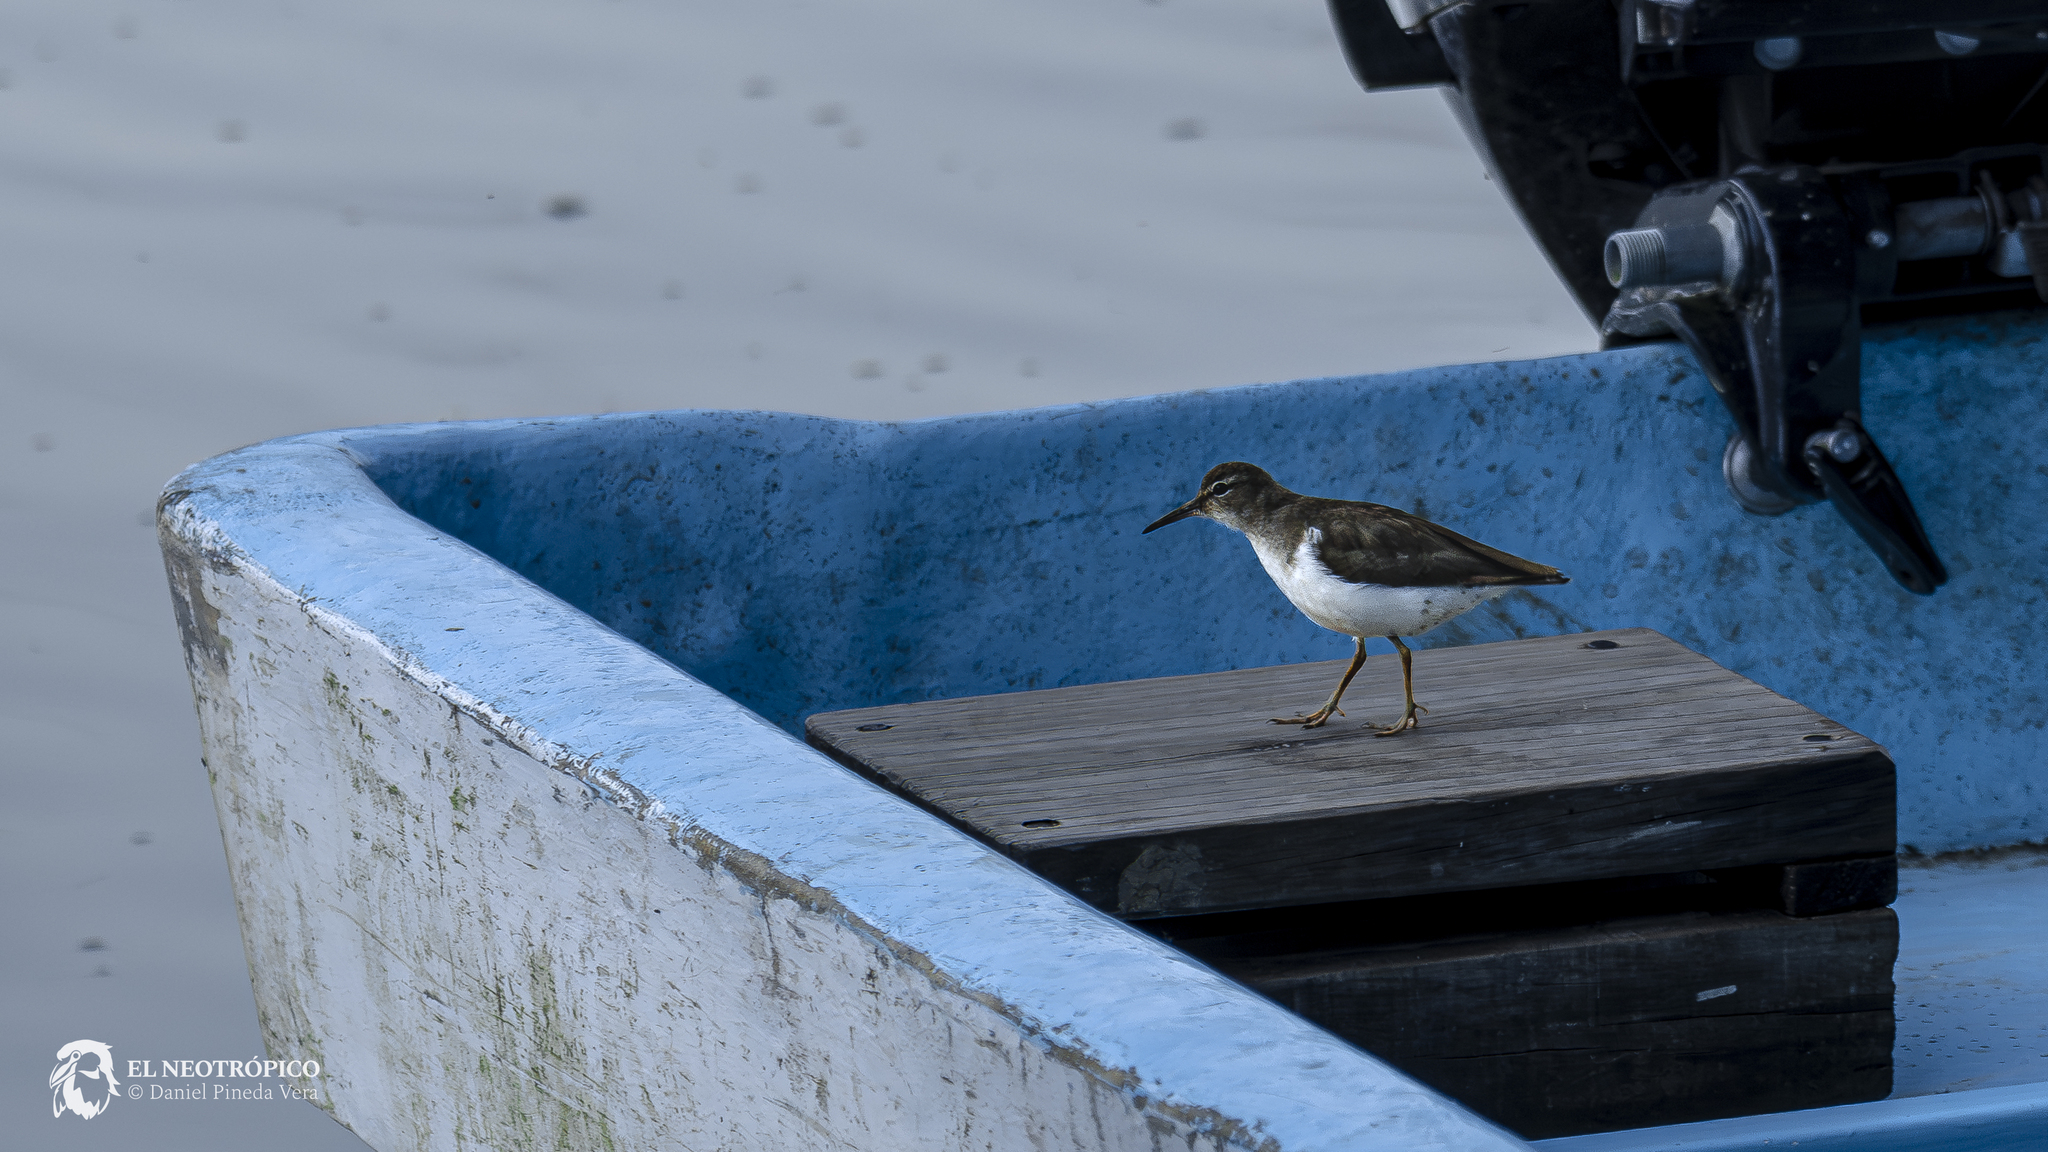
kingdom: Animalia
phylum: Chordata
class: Aves
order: Charadriiformes
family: Scolopacidae
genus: Actitis
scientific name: Actitis macularius
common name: Spotted sandpiper
